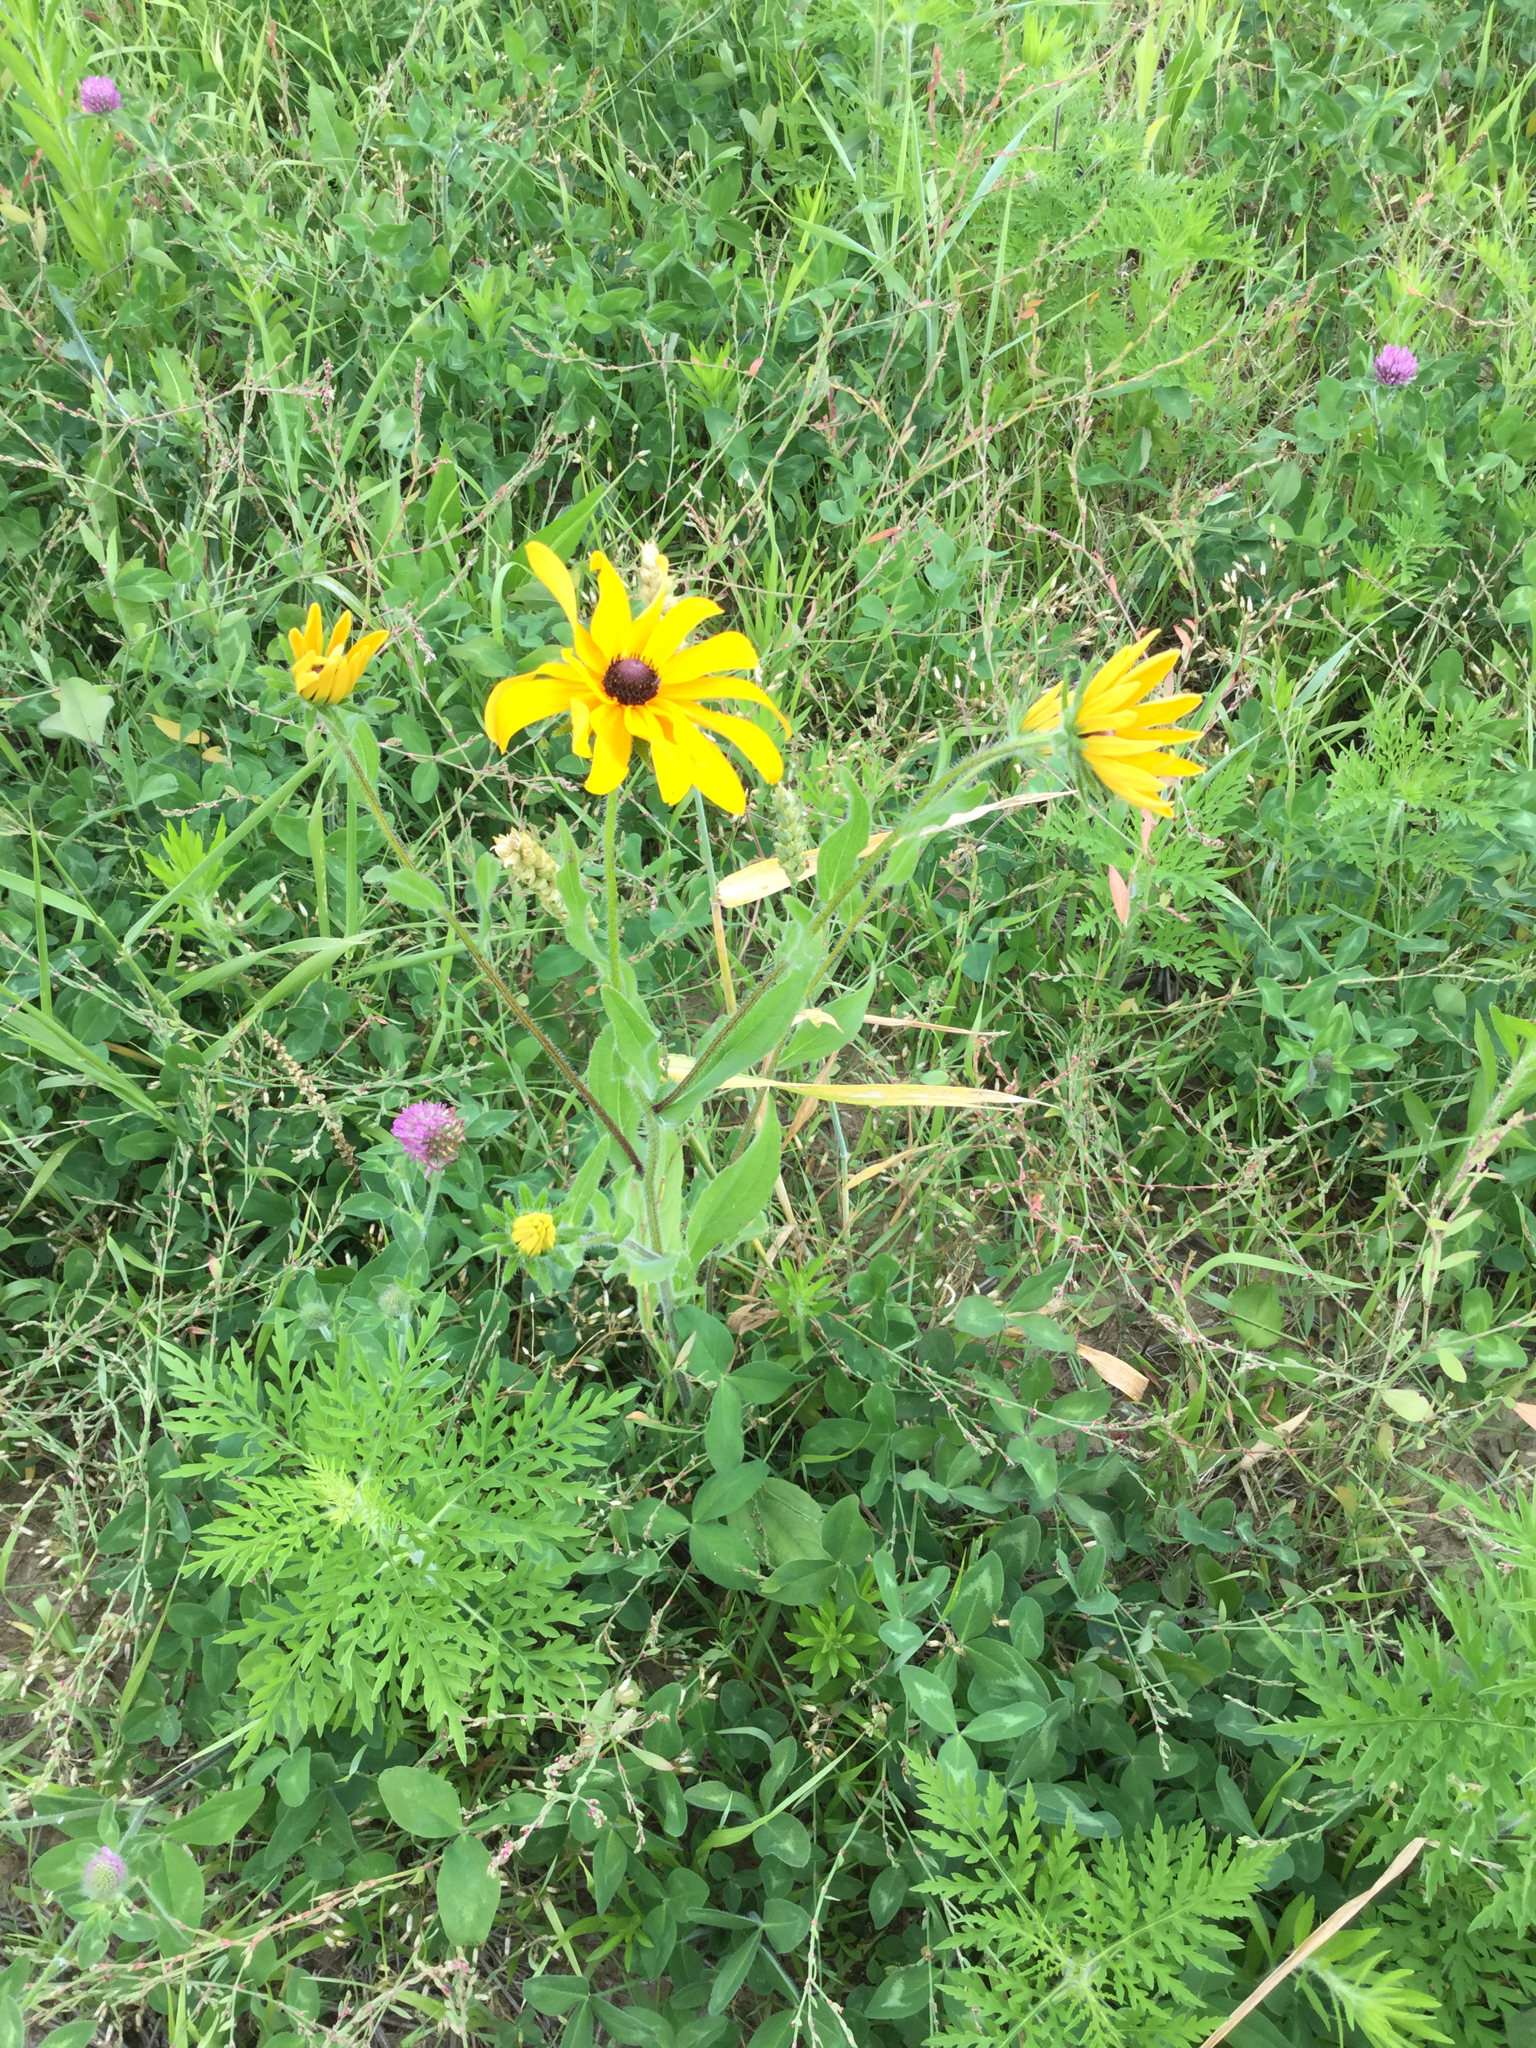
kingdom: Plantae
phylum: Tracheophyta
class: Magnoliopsida
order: Asterales
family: Asteraceae
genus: Rudbeckia
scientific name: Rudbeckia hirta
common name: Black-eyed-susan
